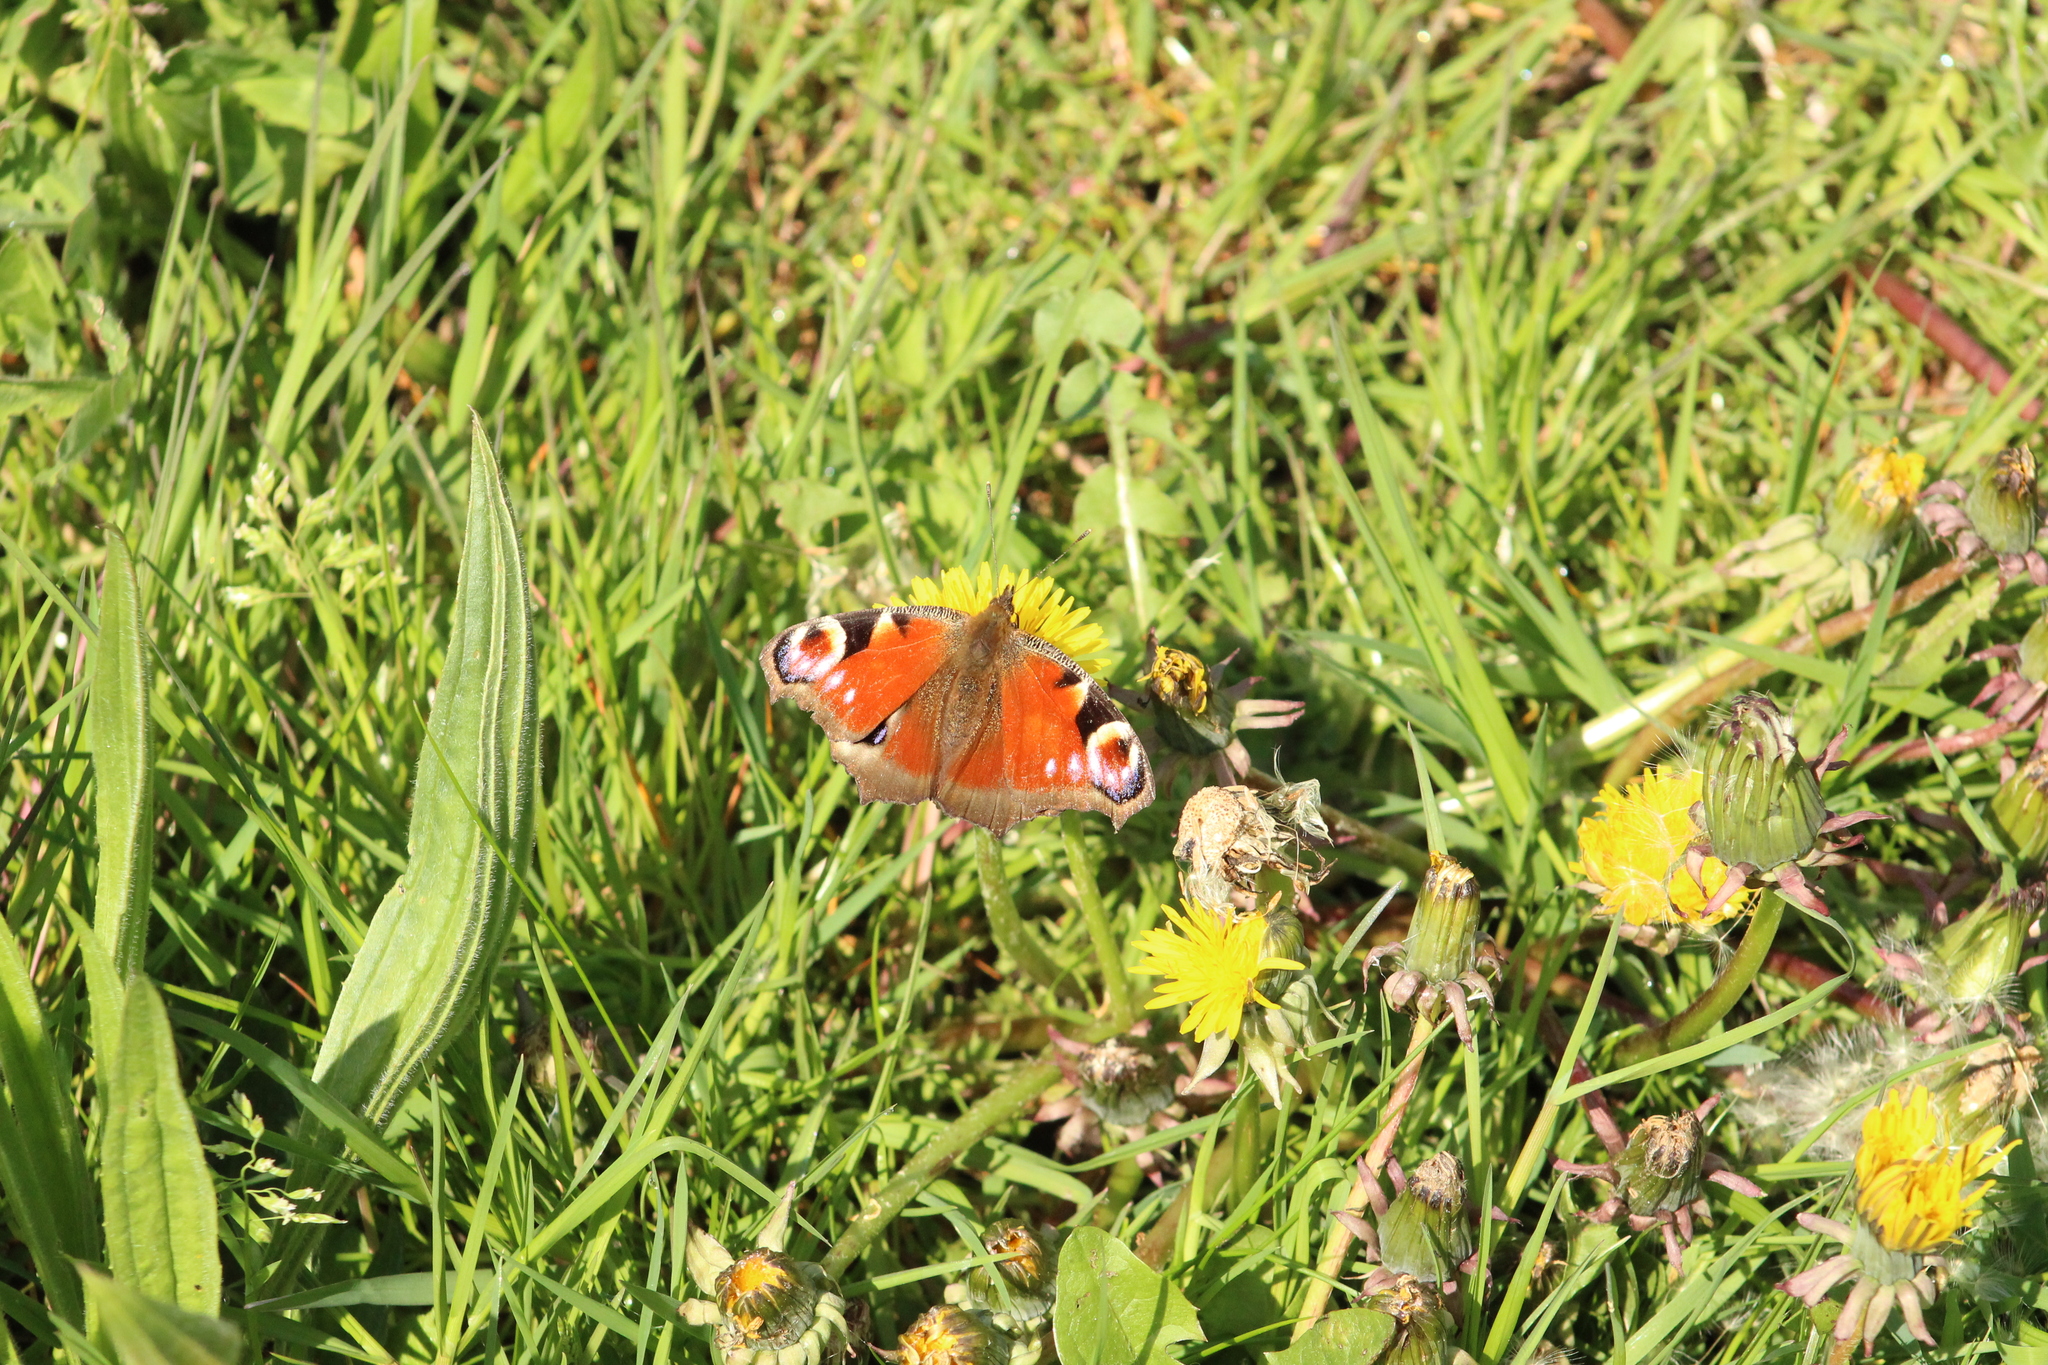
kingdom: Animalia
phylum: Arthropoda
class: Insecta
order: Lepidoptera
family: Nymphalidae
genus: Aglais
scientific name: Aglais io
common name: Peacock
